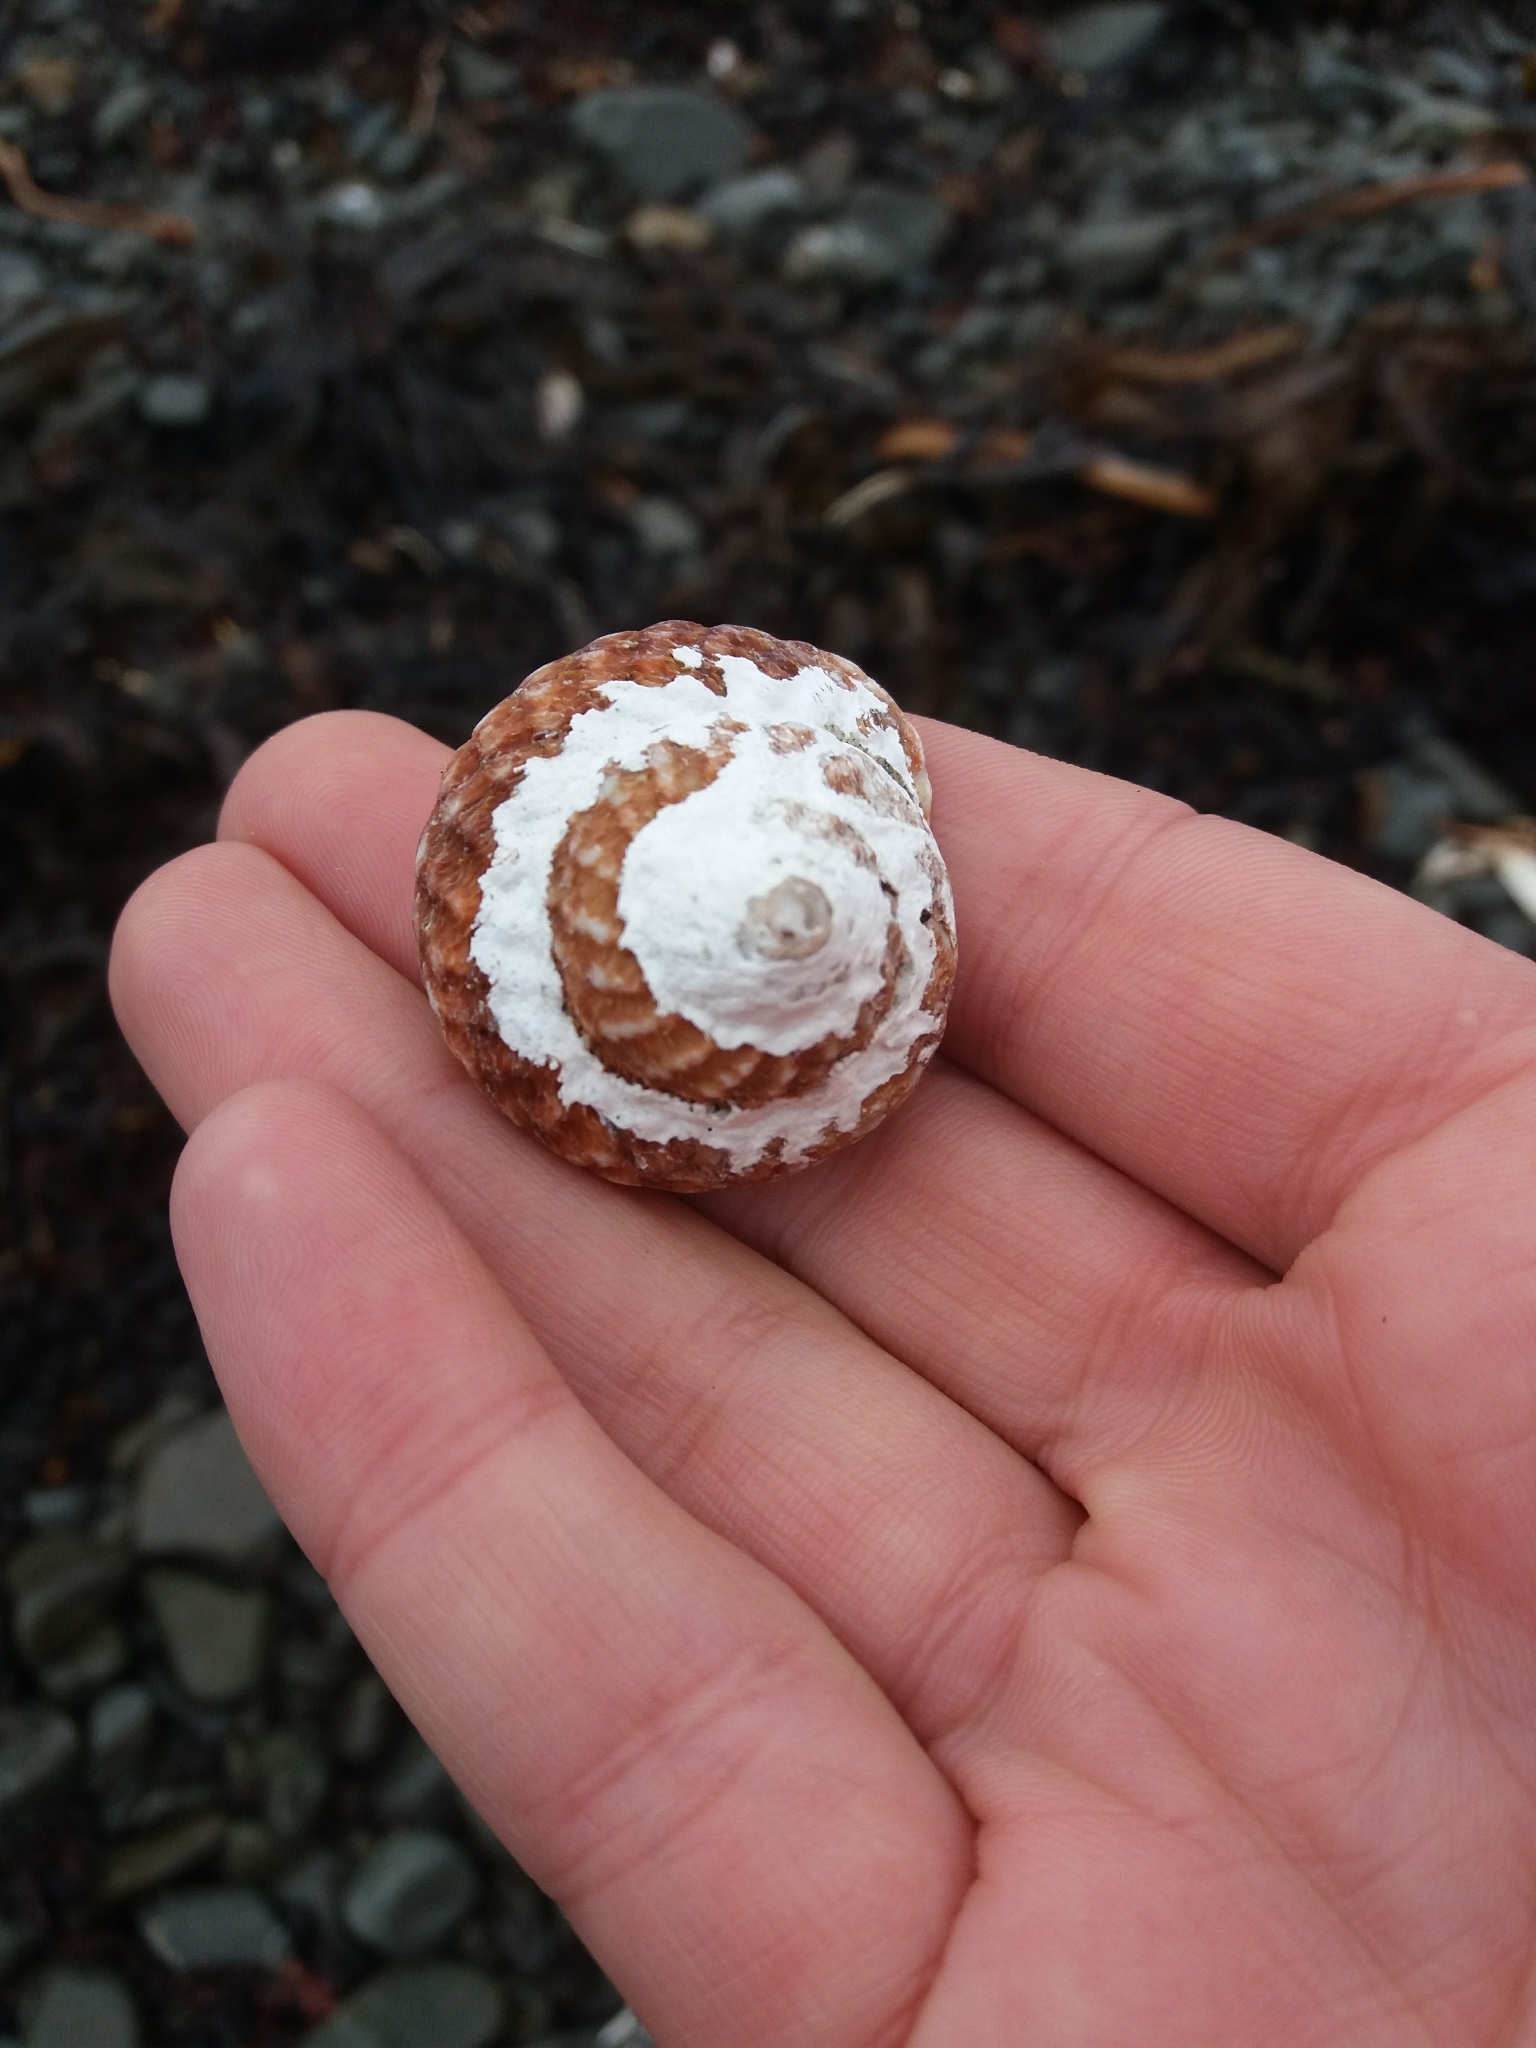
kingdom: Animalia
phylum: Mollusca
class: Gastropoda
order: Trochida
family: Turbinidae
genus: Cookia
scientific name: Cookia sulcata
